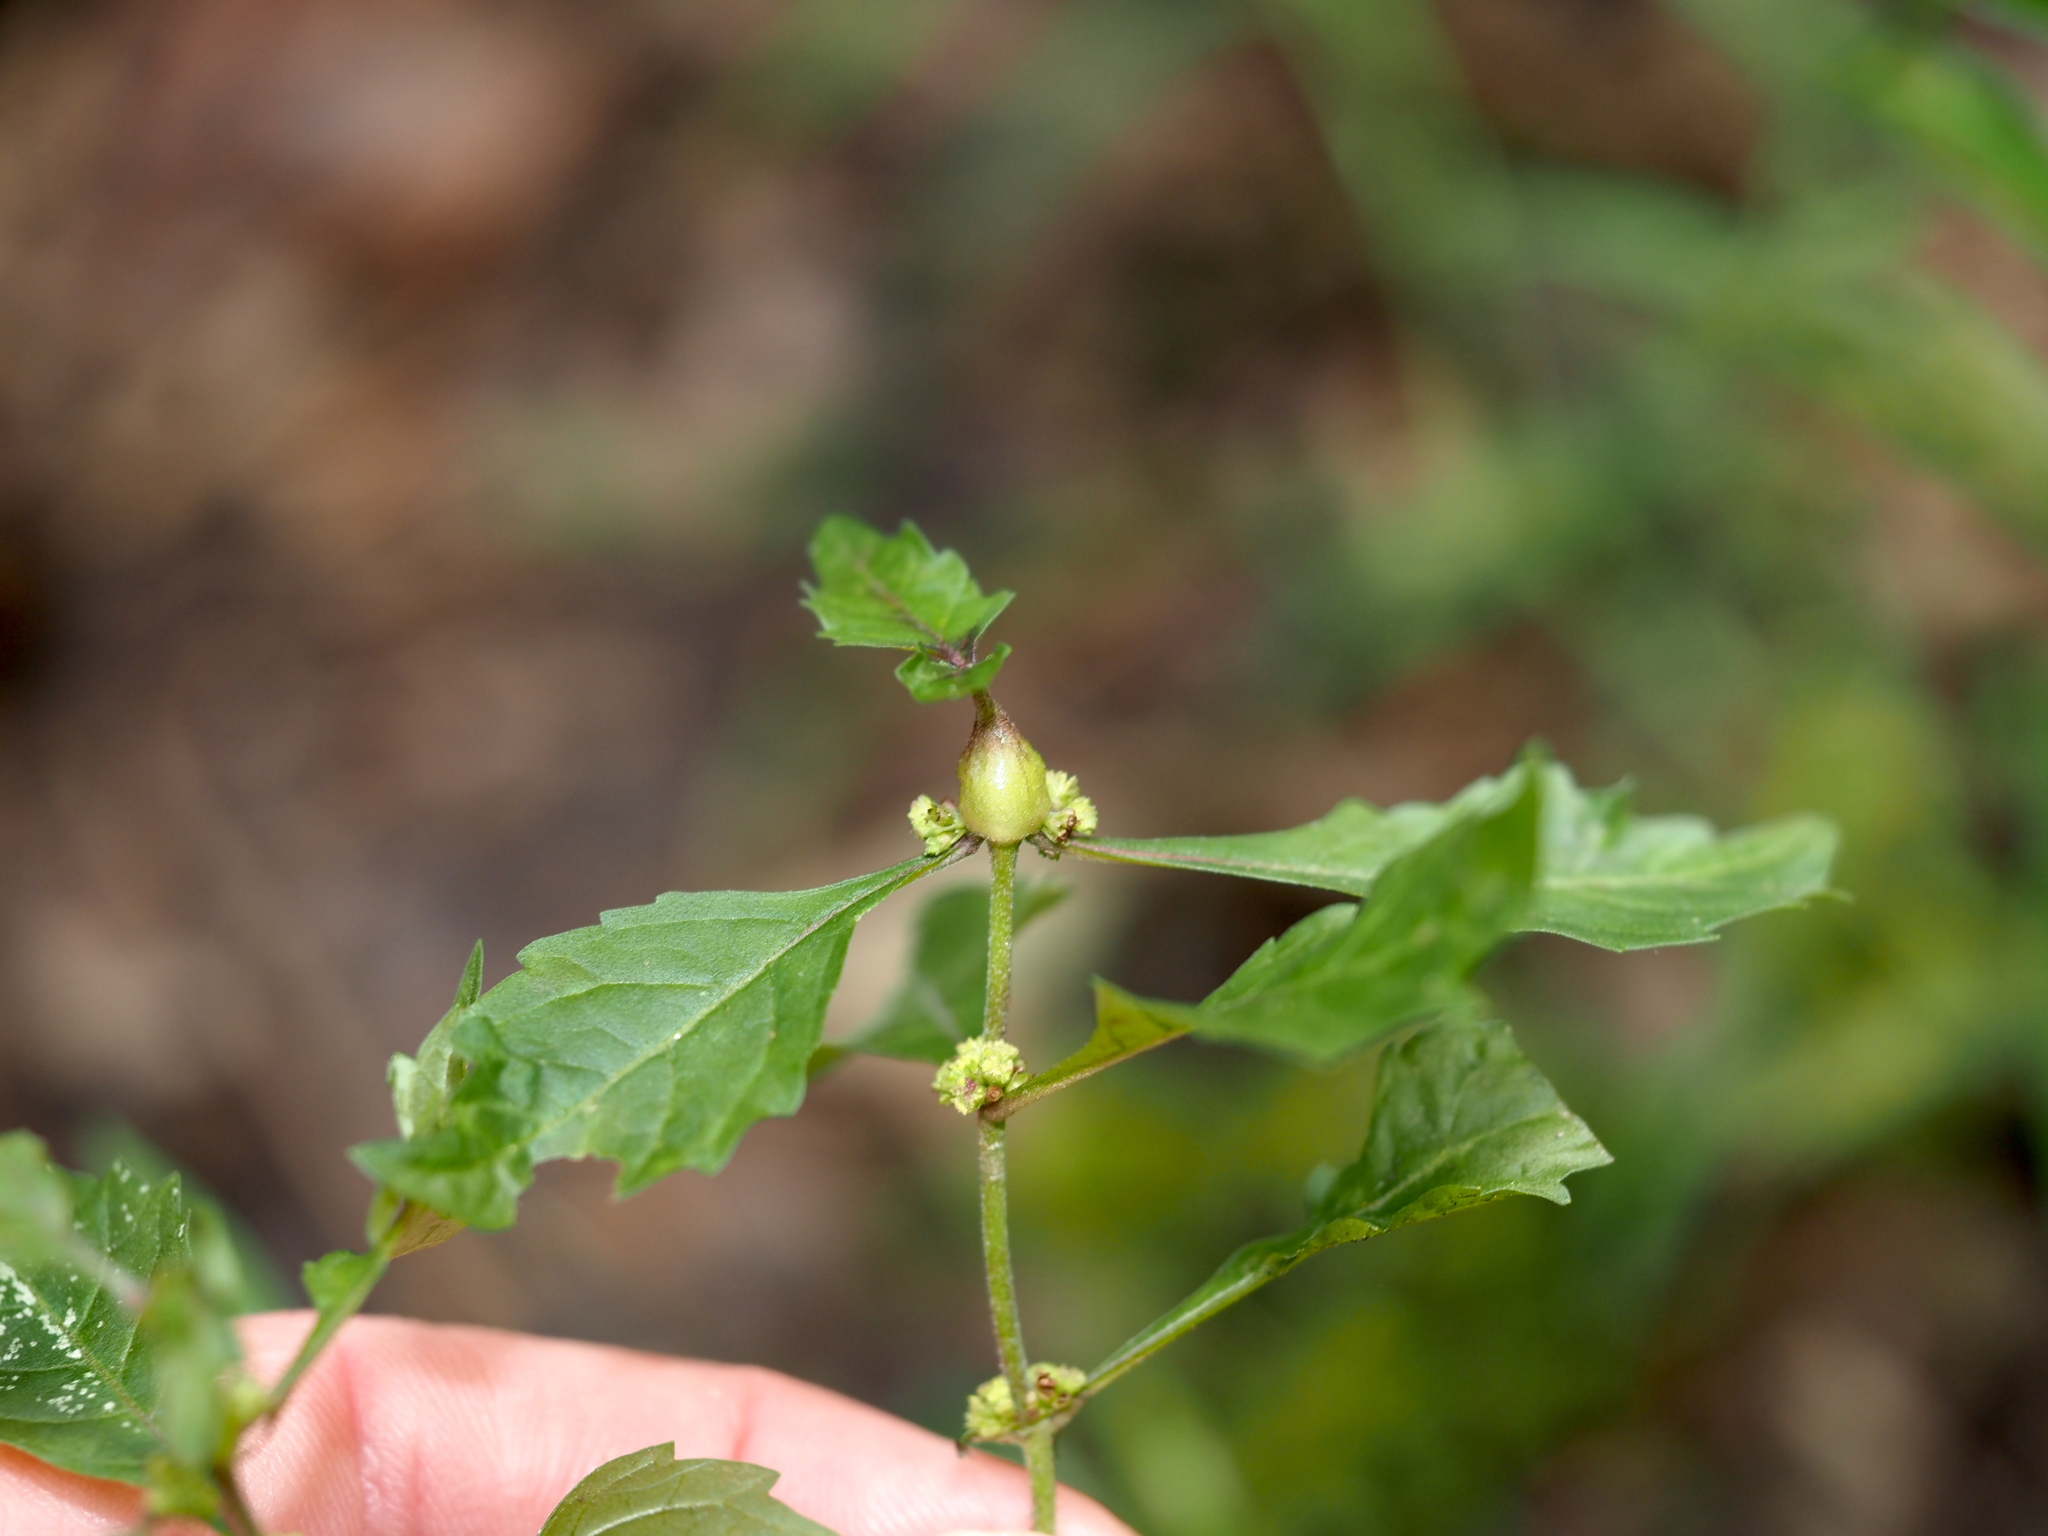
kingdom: Animalia
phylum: Arthropoda
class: Insecta
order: Diptera
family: Cecidomyiidae
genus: Neolasioptera
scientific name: Neolasioptera lycopi
